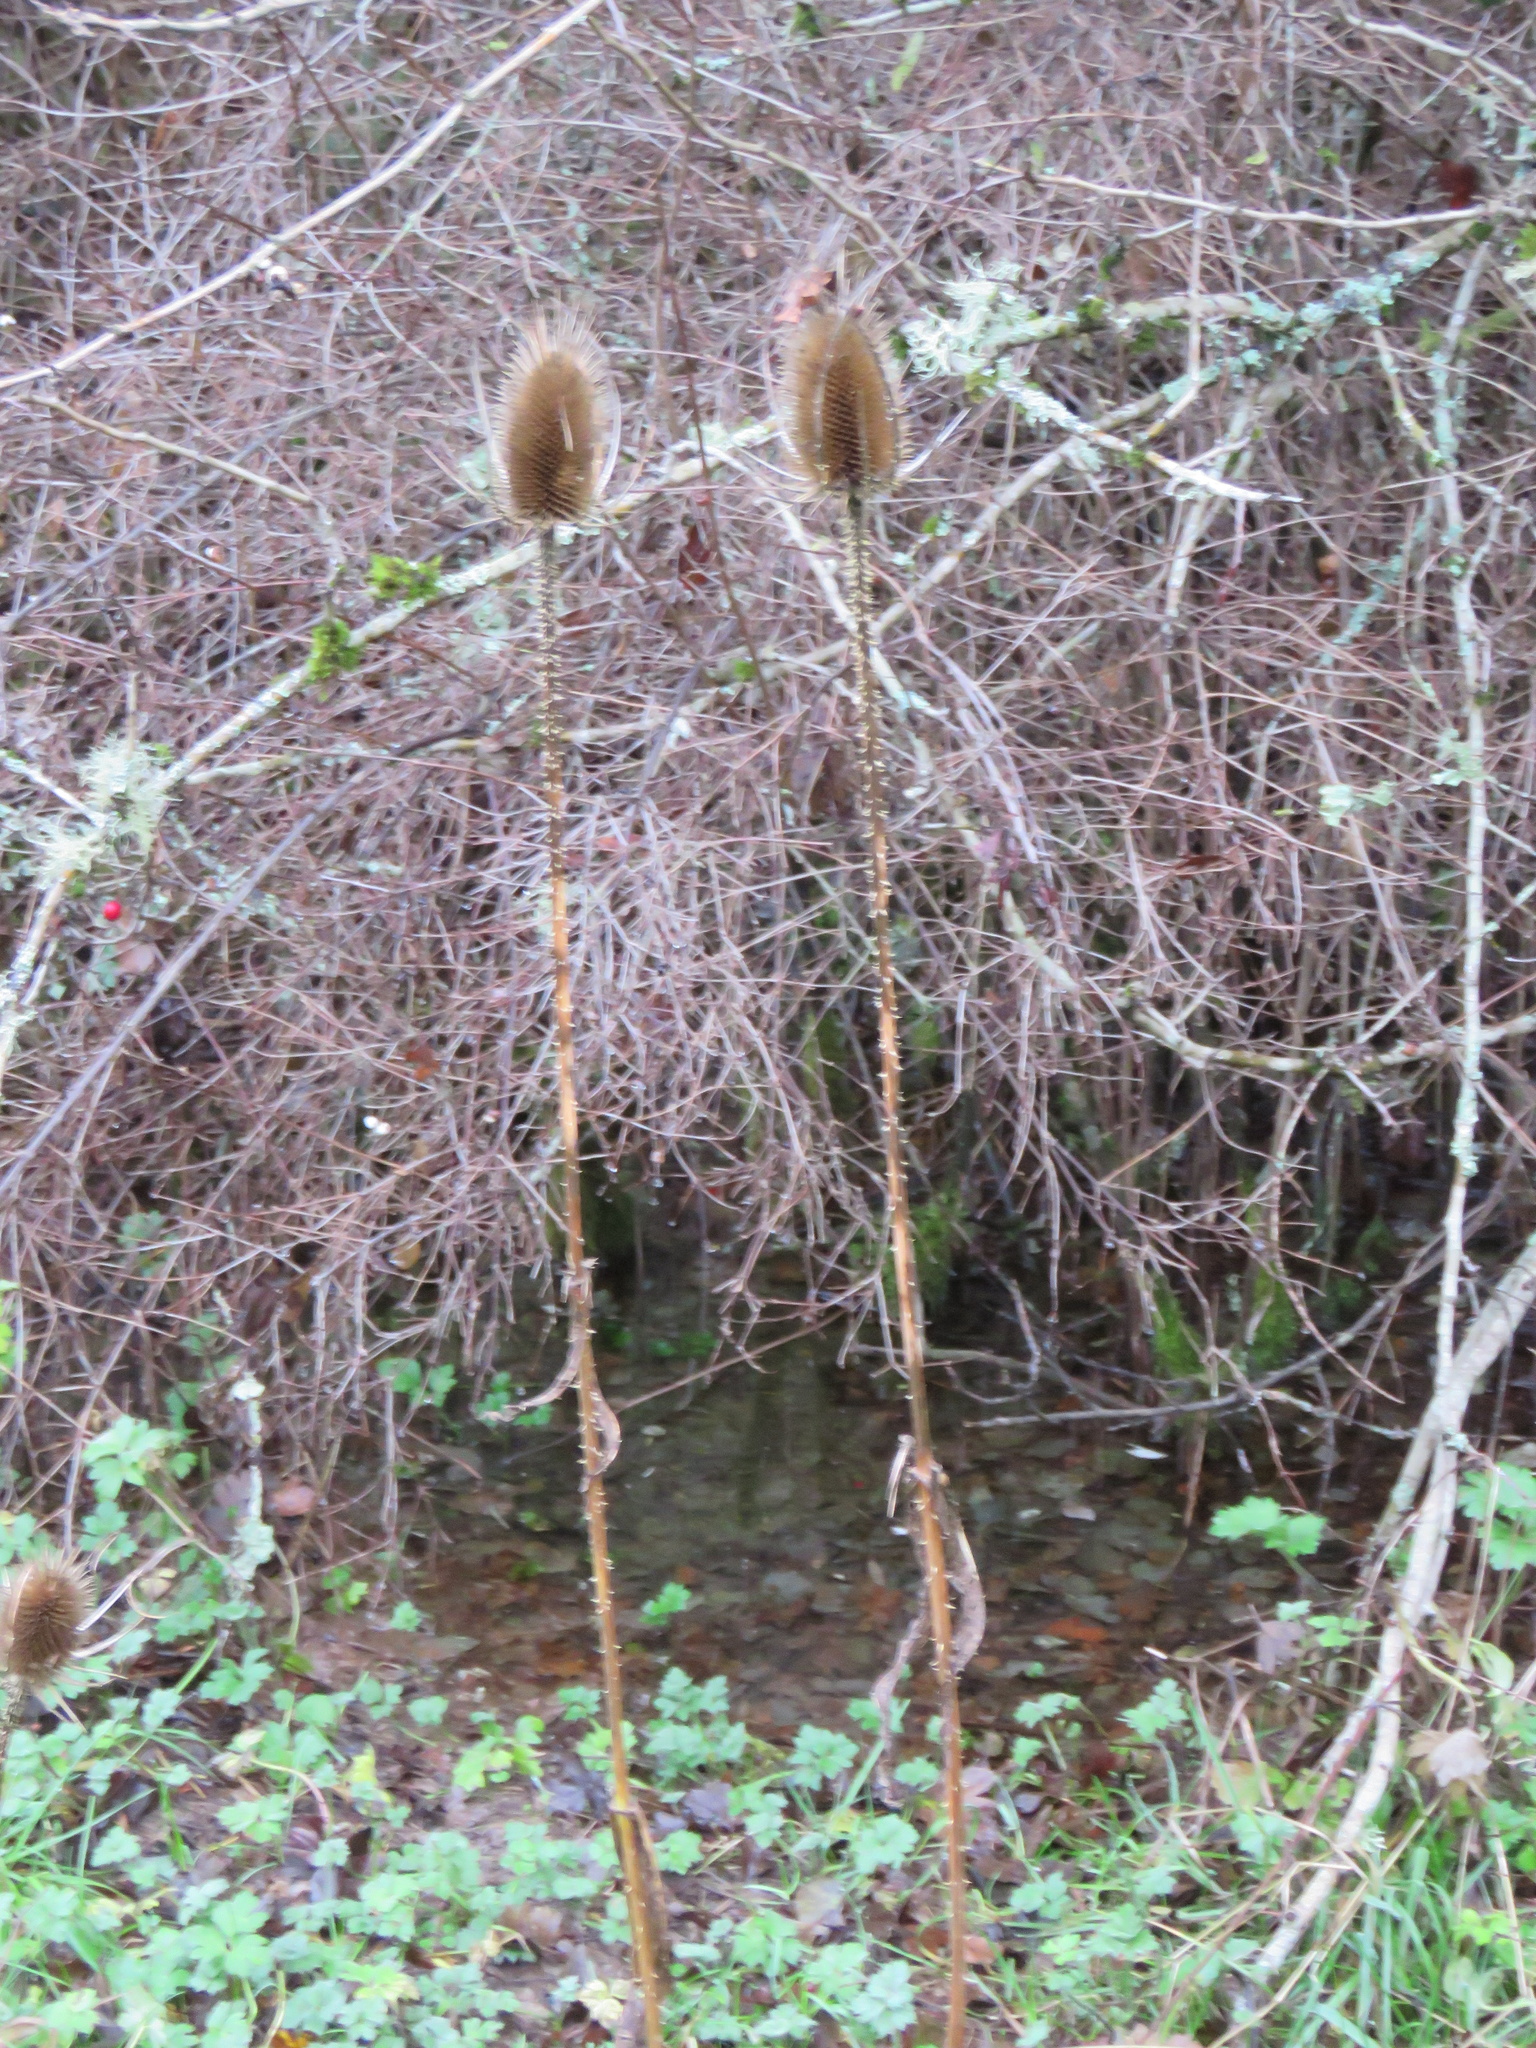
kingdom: Plantae
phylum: Tracheophyta
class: Magnoliopsida
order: Dipsacales
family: Caprifoliaceae
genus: Dipsacus
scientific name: Dipsacus fullonum
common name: Teasel
